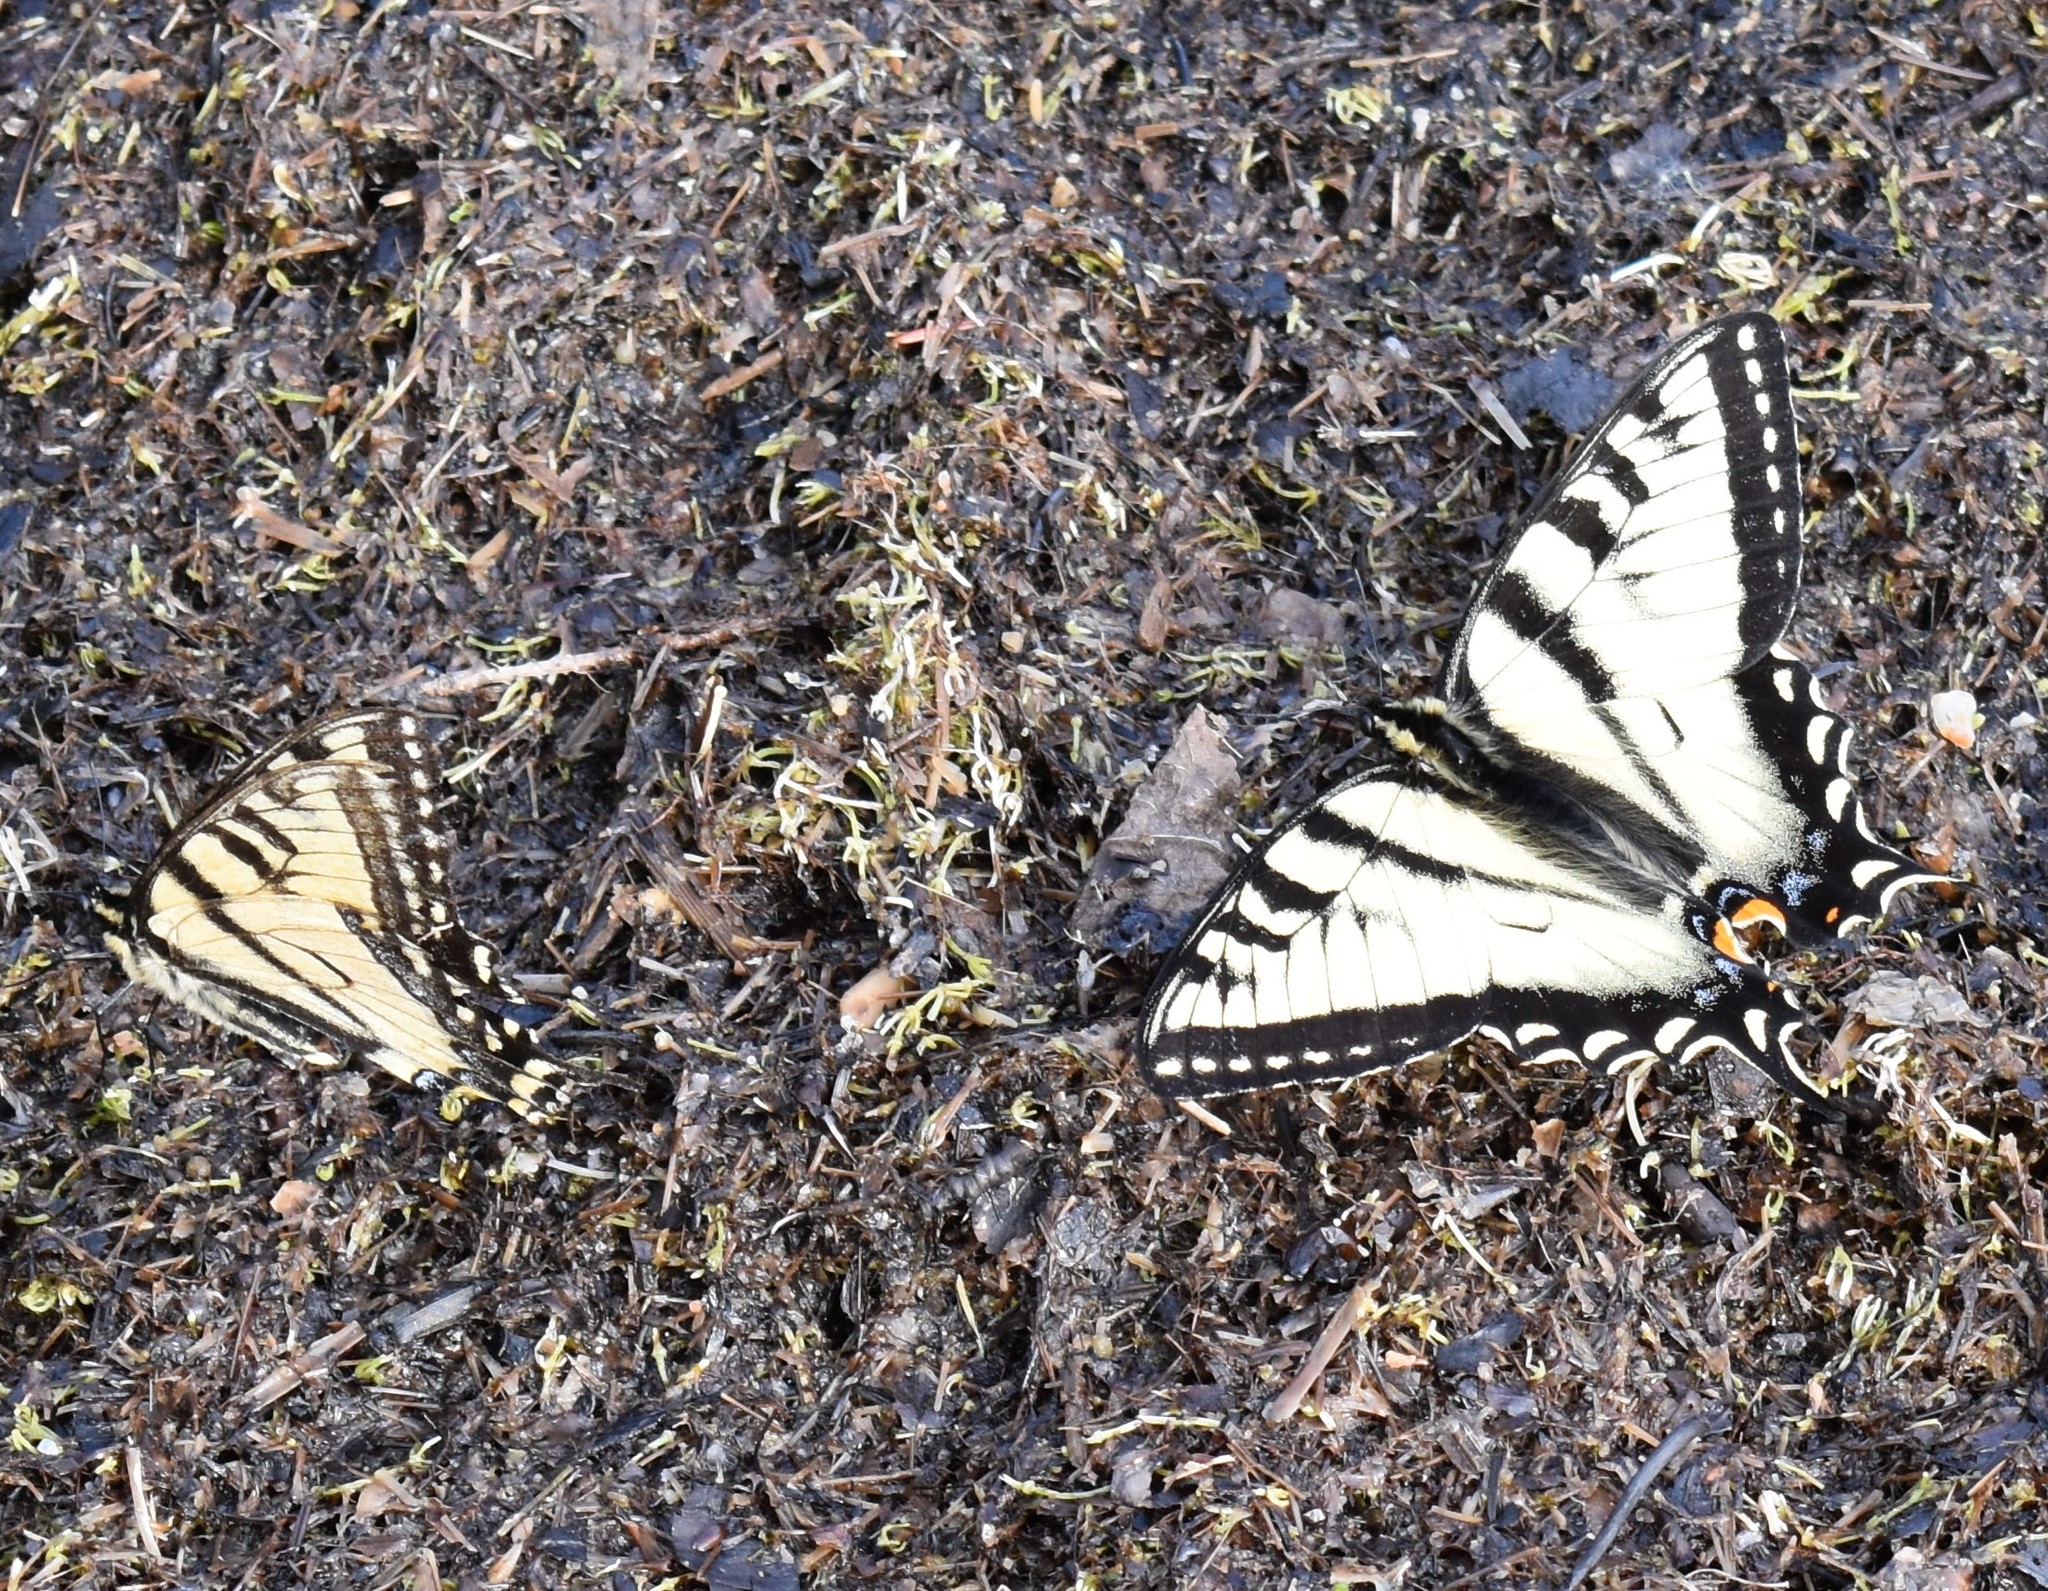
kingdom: Animalia
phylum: Arthropoda
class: Insecta
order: Lepidoptera
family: Papilionidae
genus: Papilio
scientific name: Papilio canadensis
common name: Canadian tiger swallowtail
